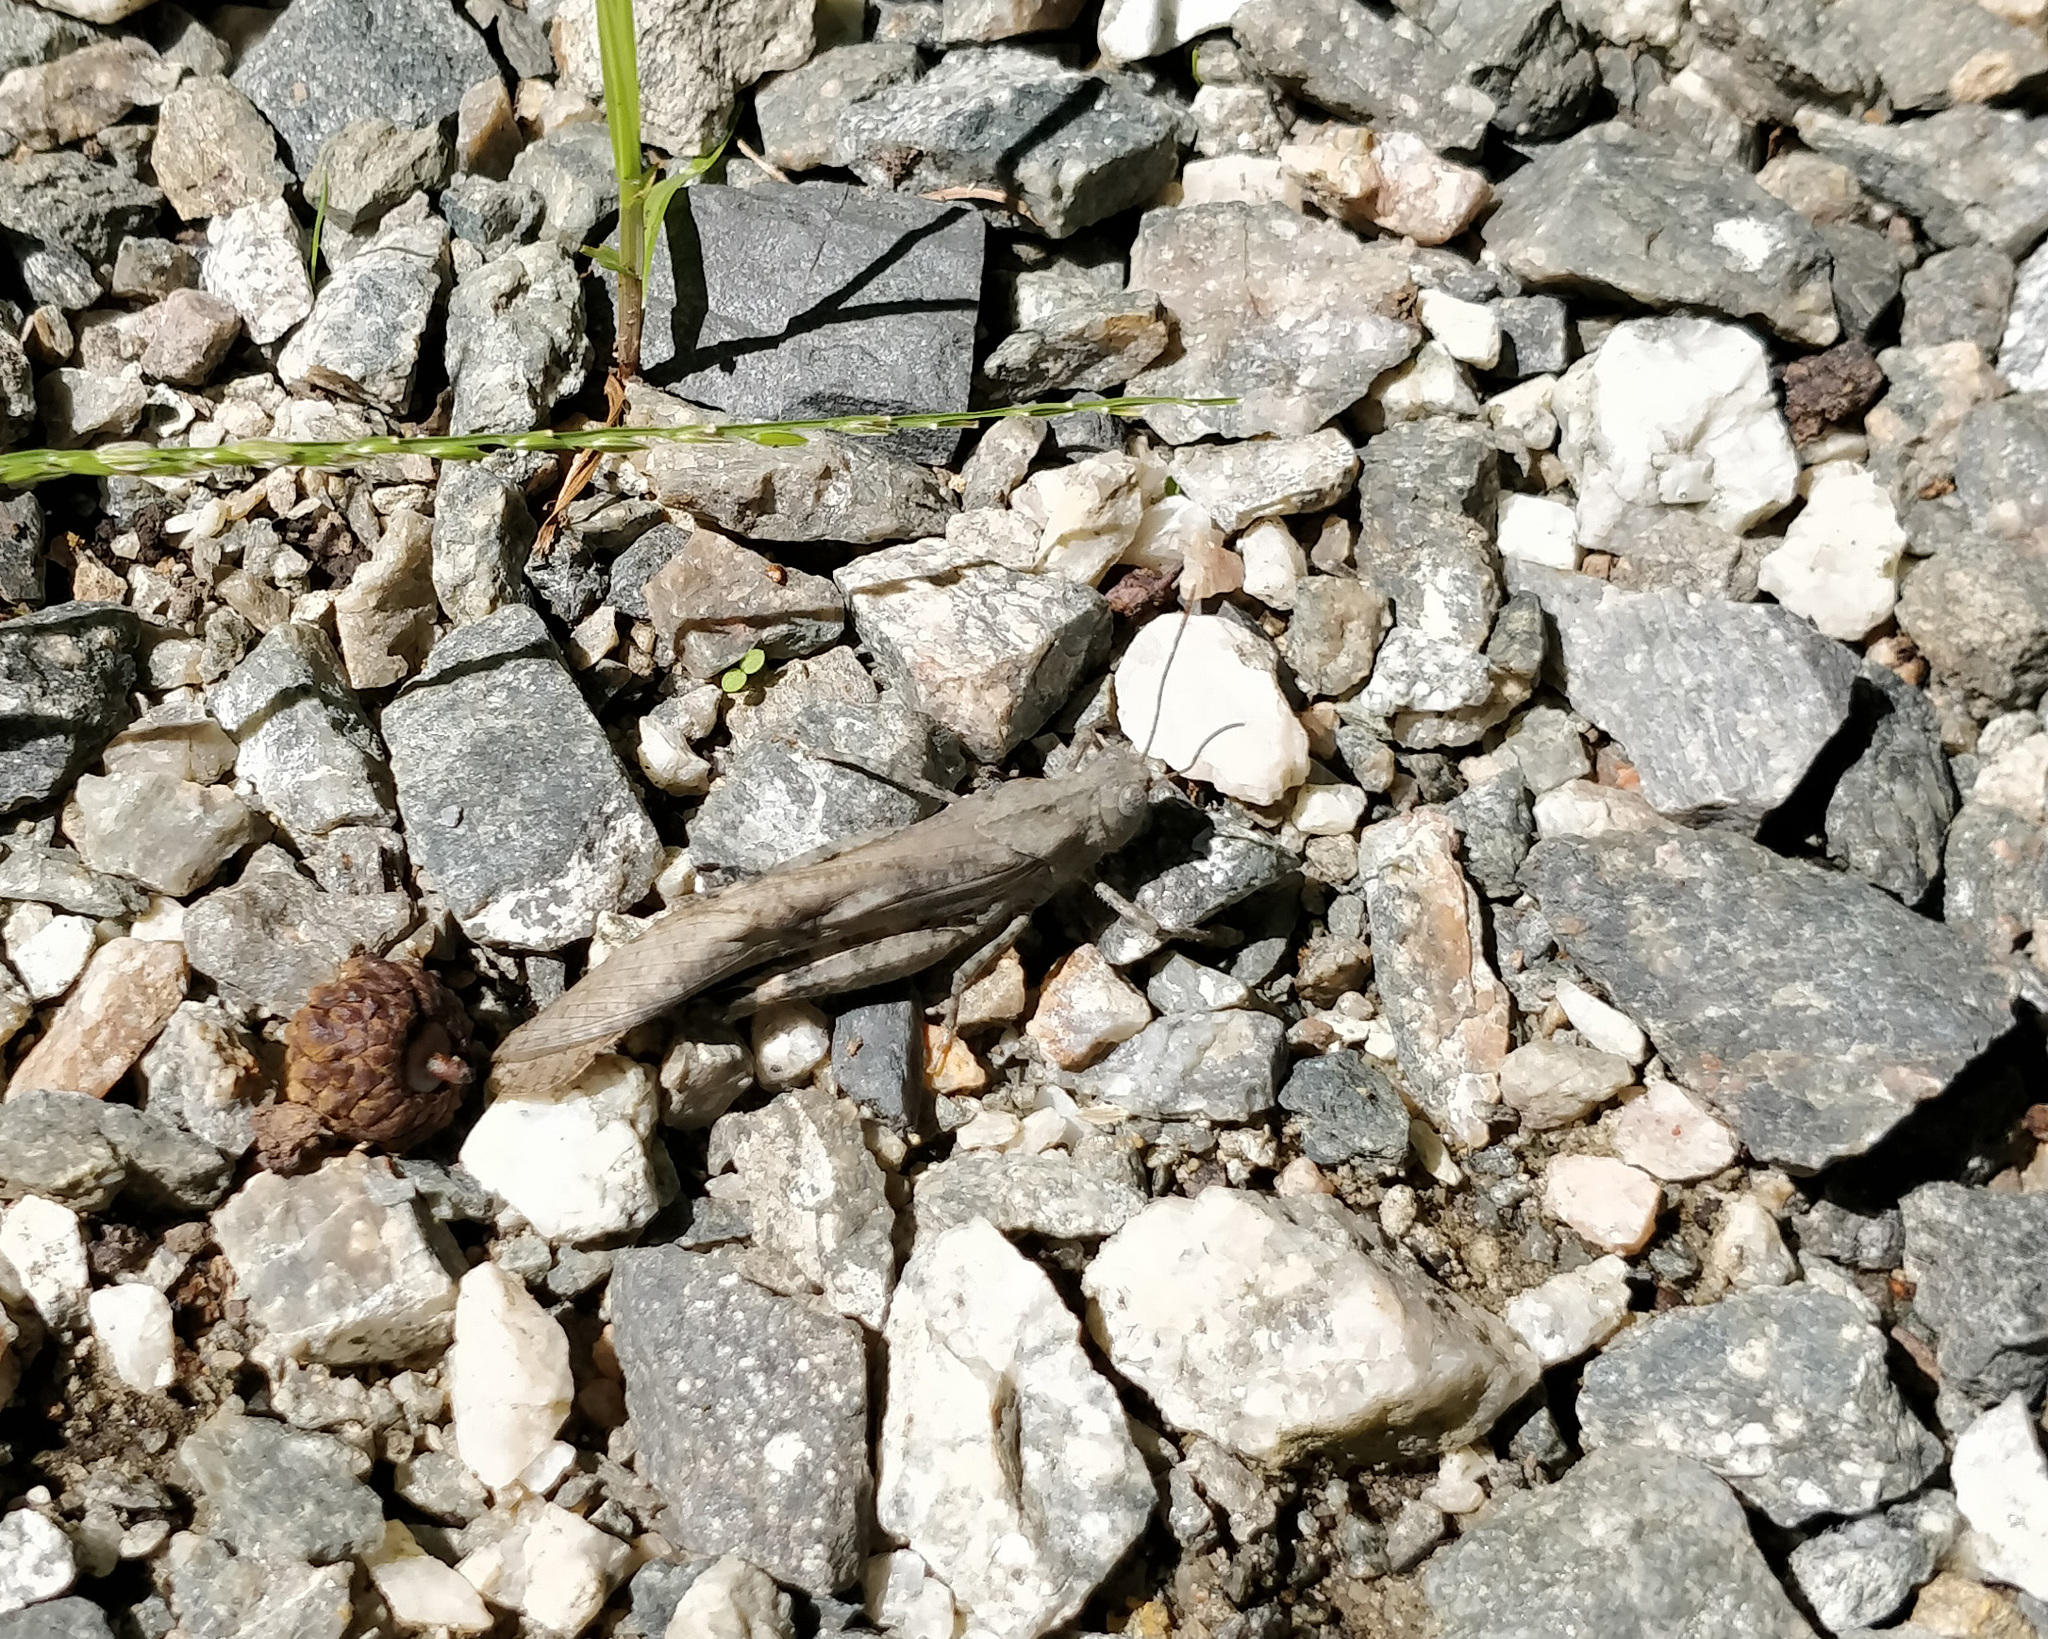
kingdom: Animalia
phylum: Arthropoda
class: Insecta
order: Orthoptera
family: Acrididae
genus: Dissosteira
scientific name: Dissosteira carolina
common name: Carolina grasshopper
